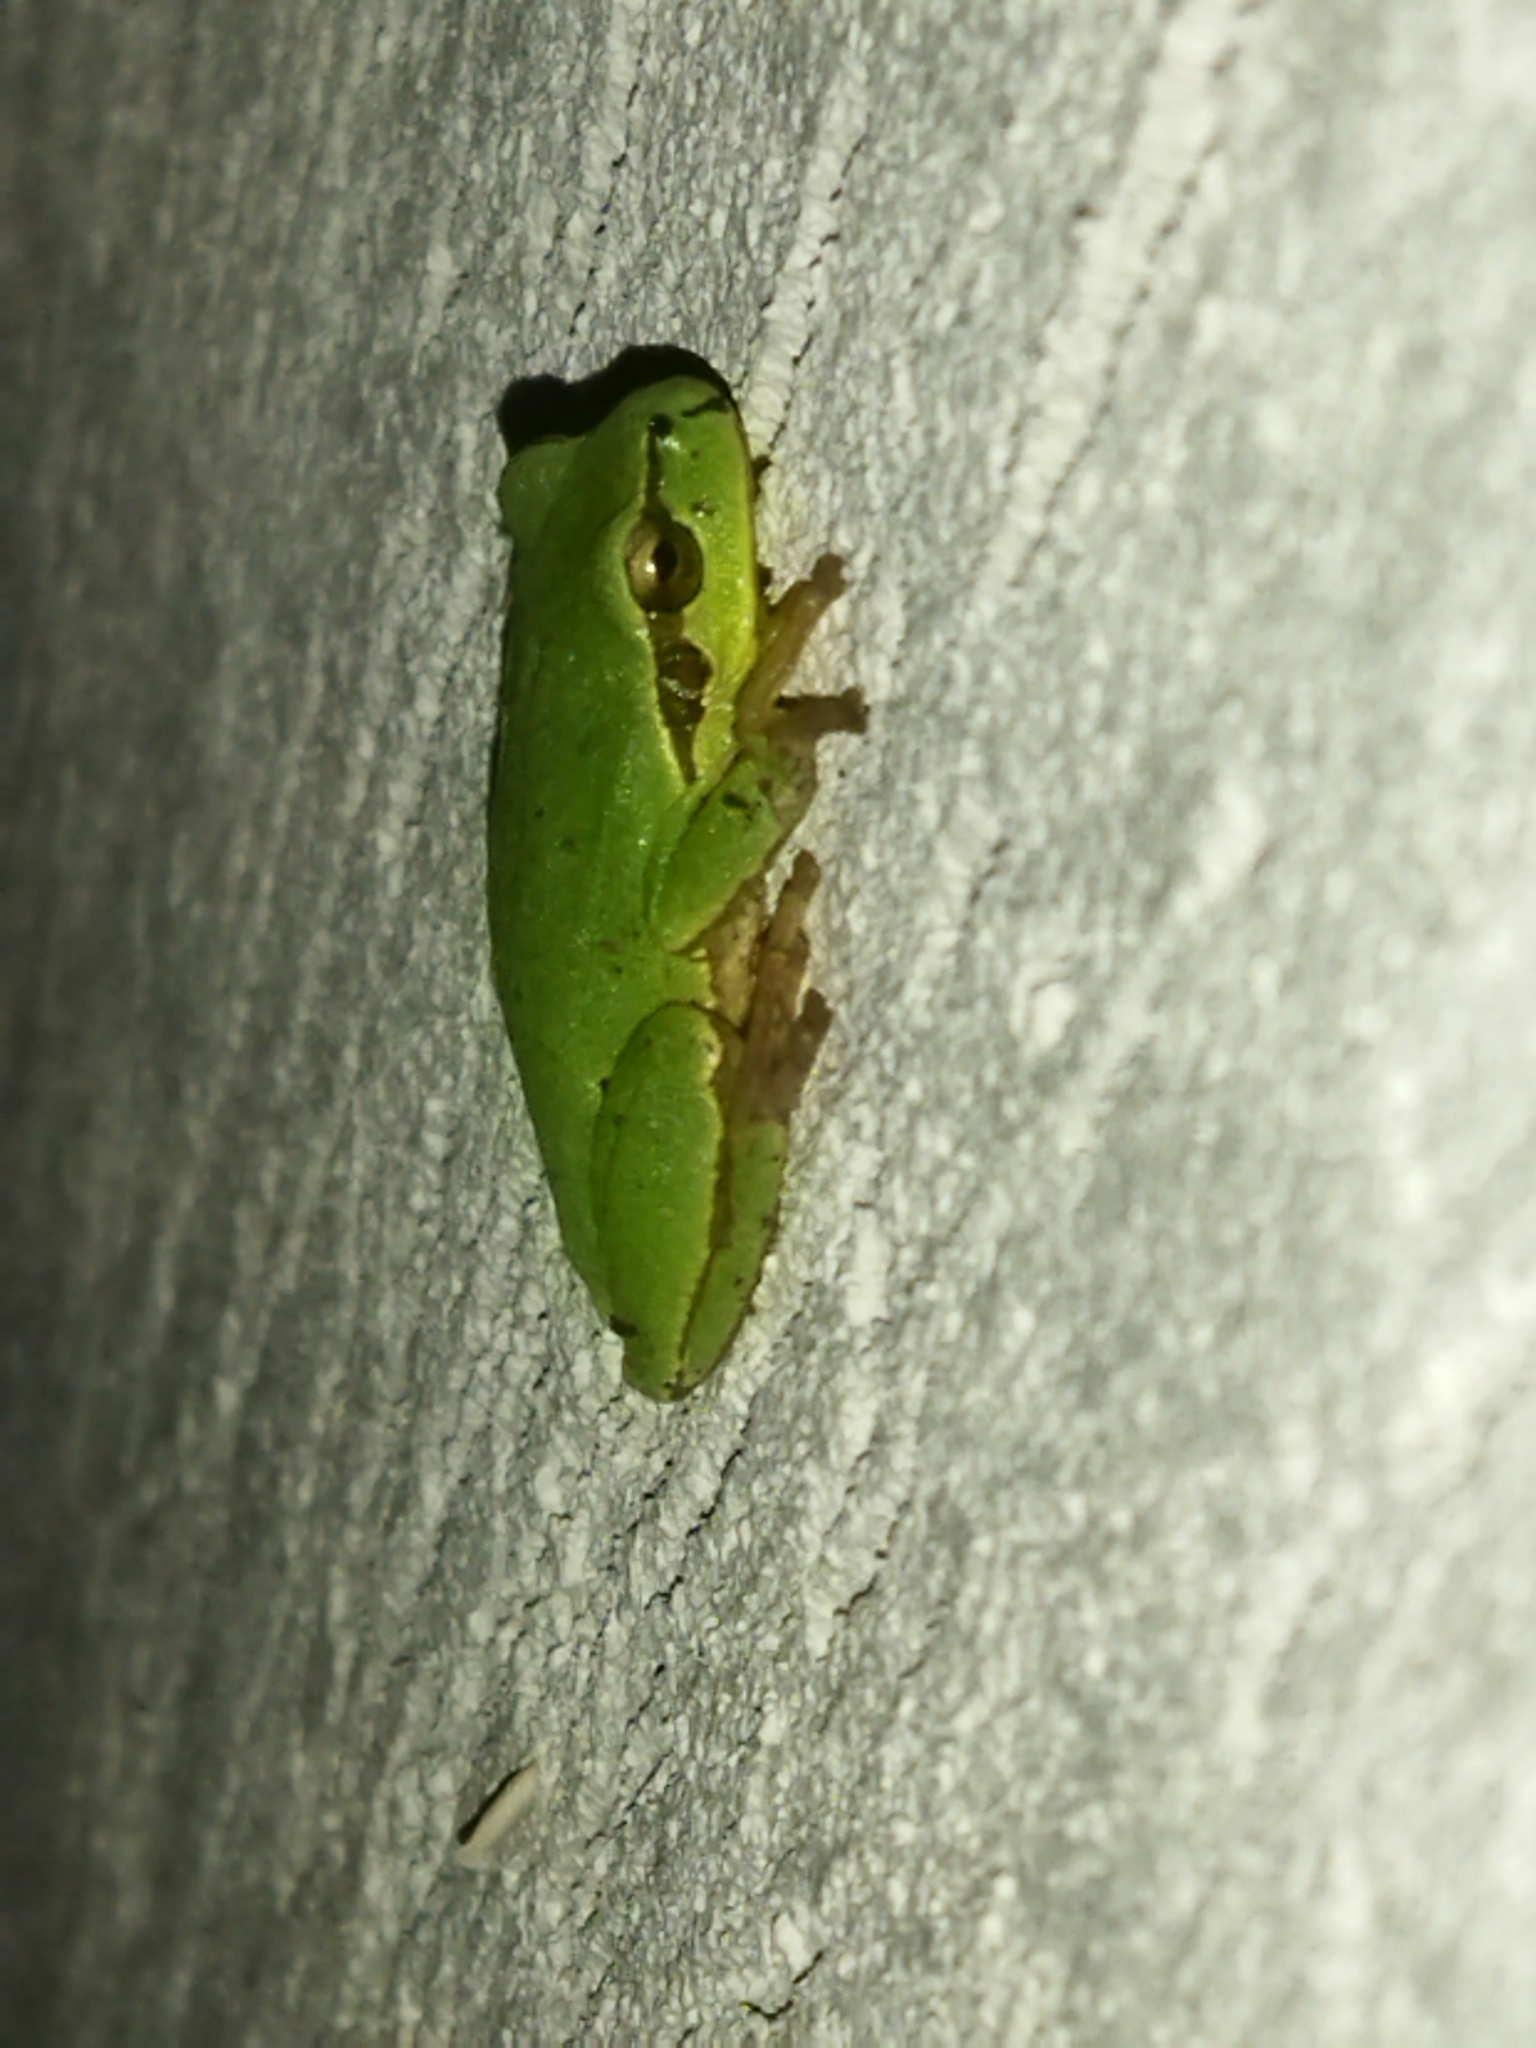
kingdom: Animalia
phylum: Chordata
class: Amphibia
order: Anura
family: Hylidae
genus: Hyla
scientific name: Hyla orientalis
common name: Caucasian treefrog
